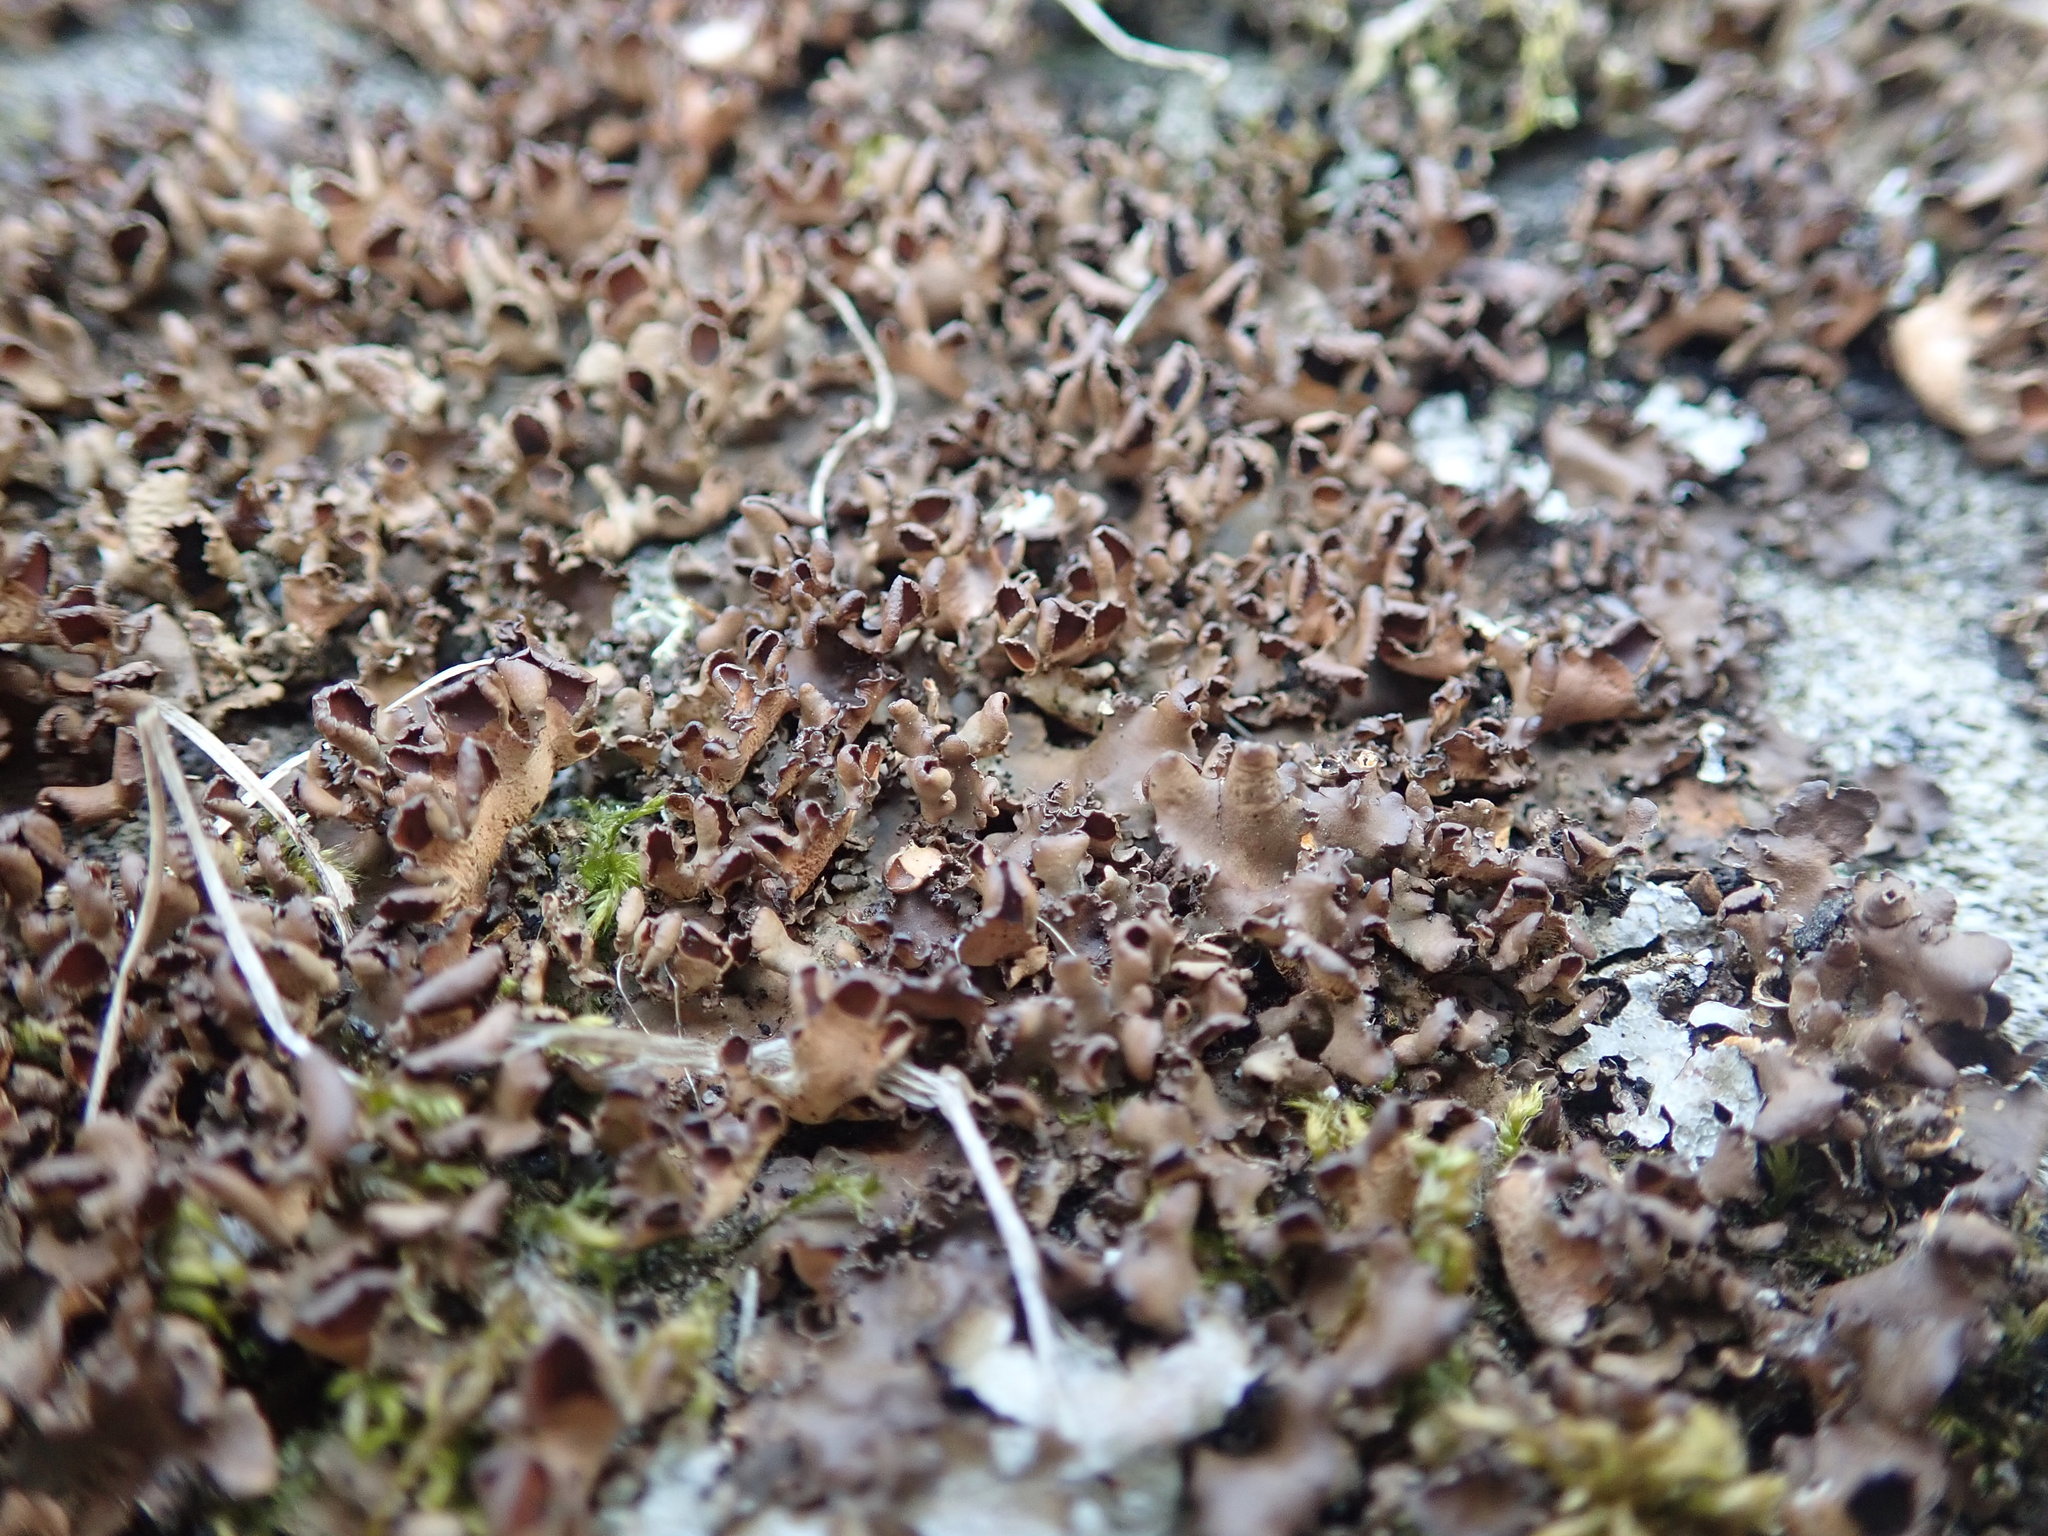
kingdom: Fungi
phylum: Ascomycota
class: Lecanoromycetes
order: Peltigerales
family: Nephromataceae
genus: Nephroma
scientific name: Nephroma laevigatum
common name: Mustard kidney lichen
